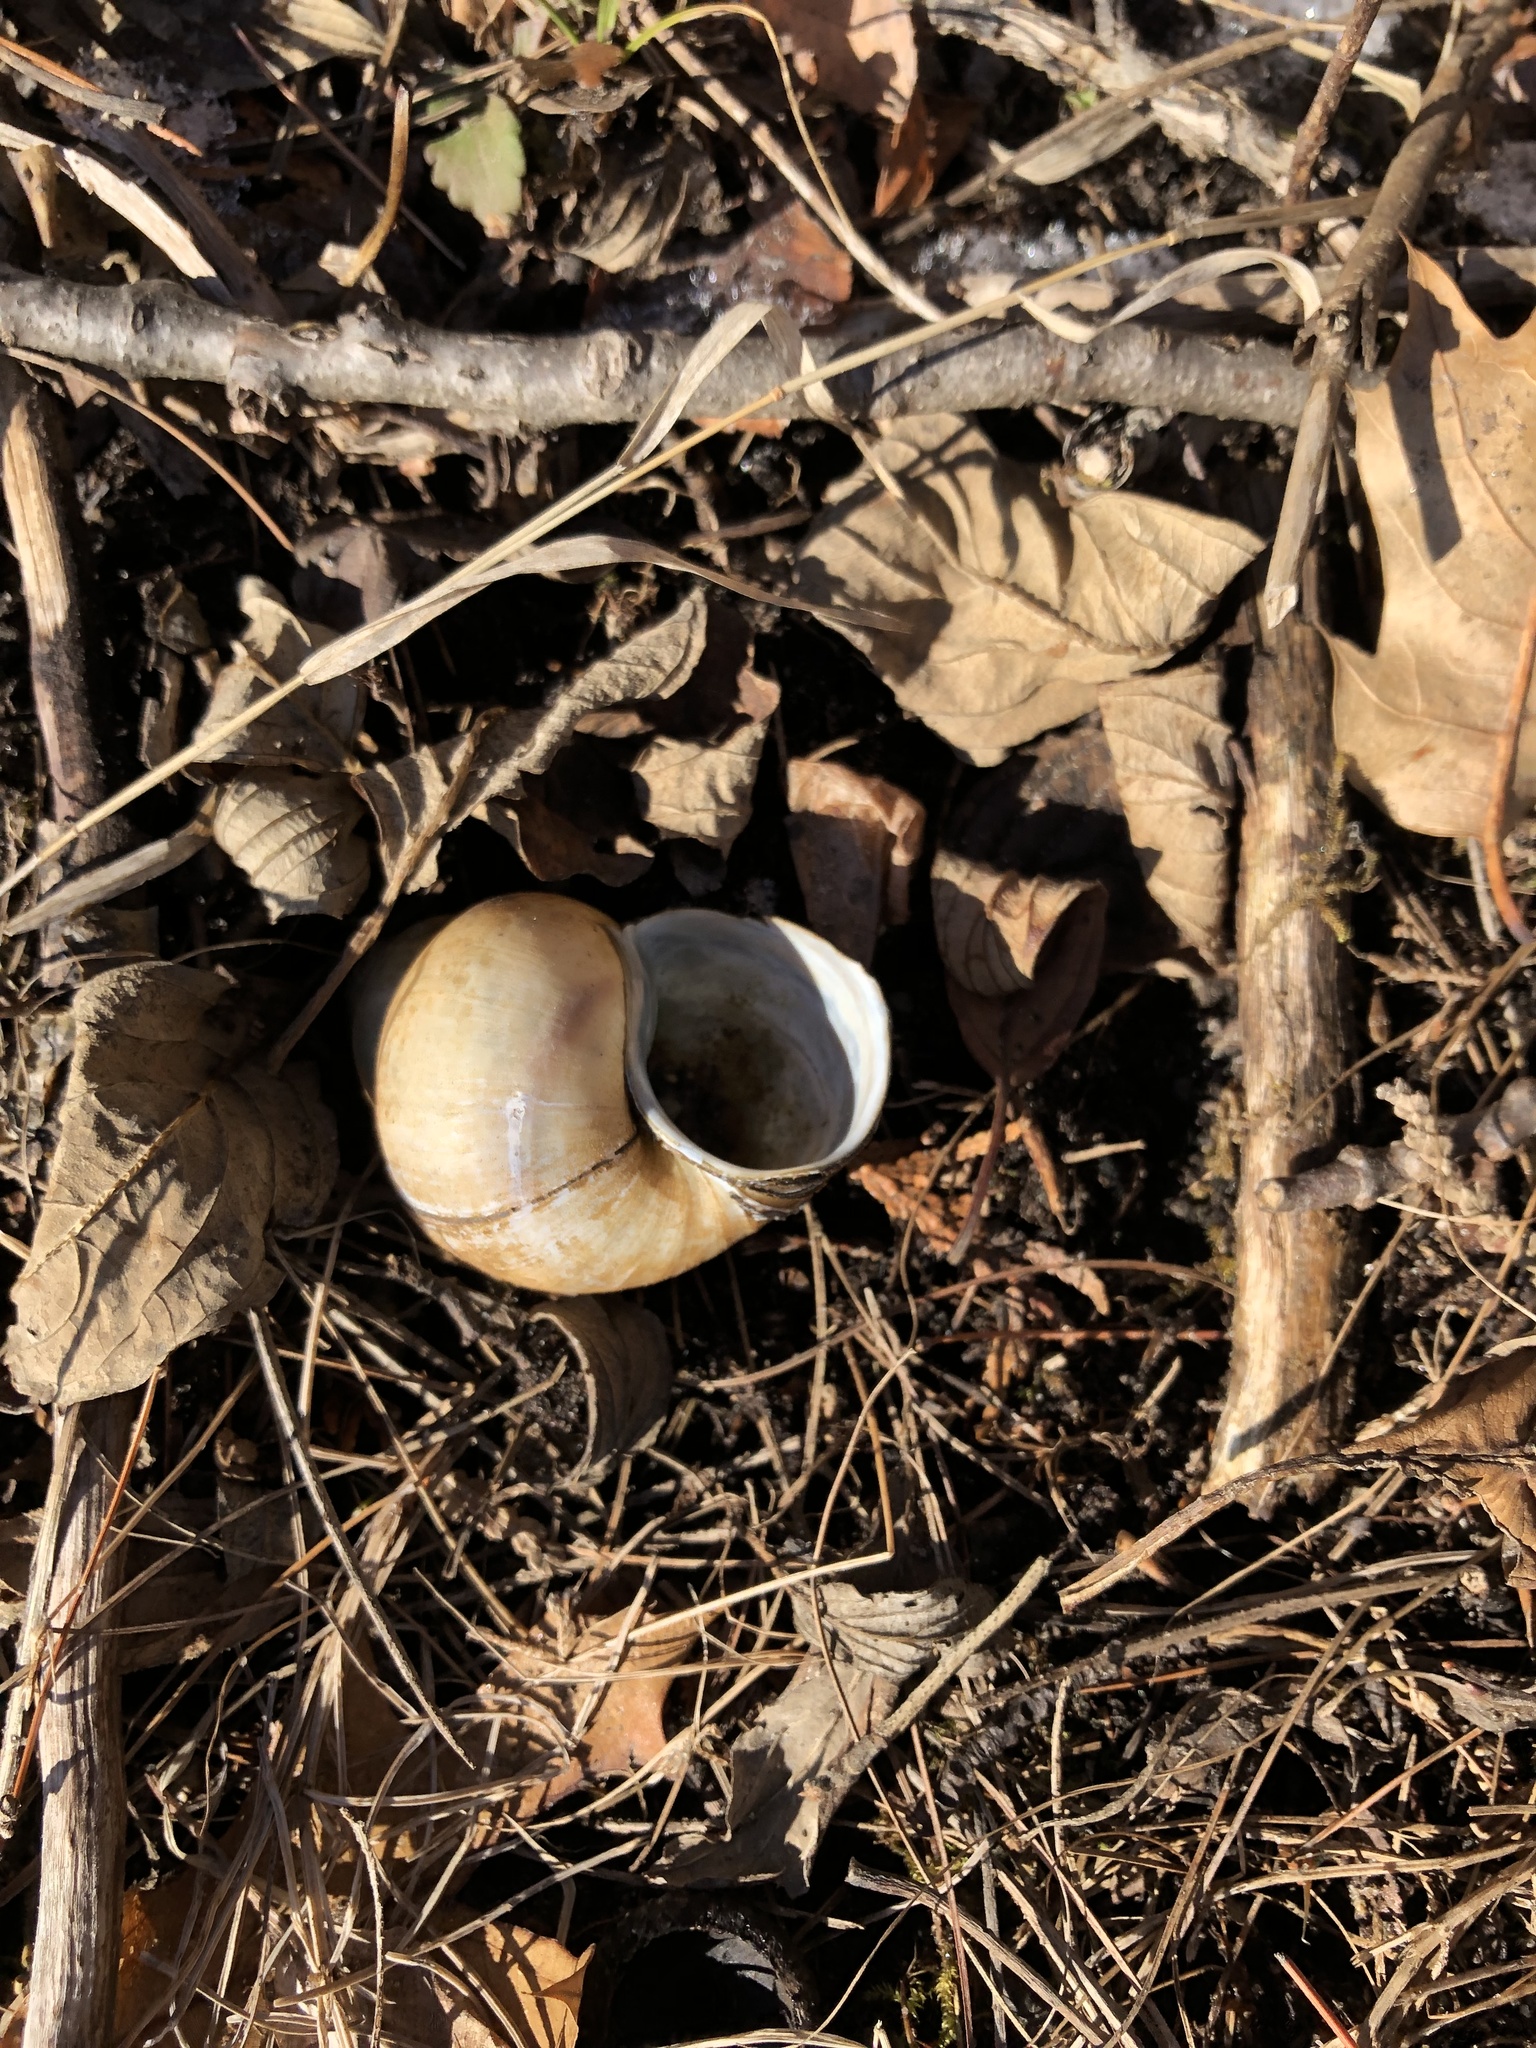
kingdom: Animalia
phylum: Mollusca
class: Gastropoda
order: Architaenioglossa
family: Viviparidae
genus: Cipangopaludina
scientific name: Cipangopaludina chinensis
